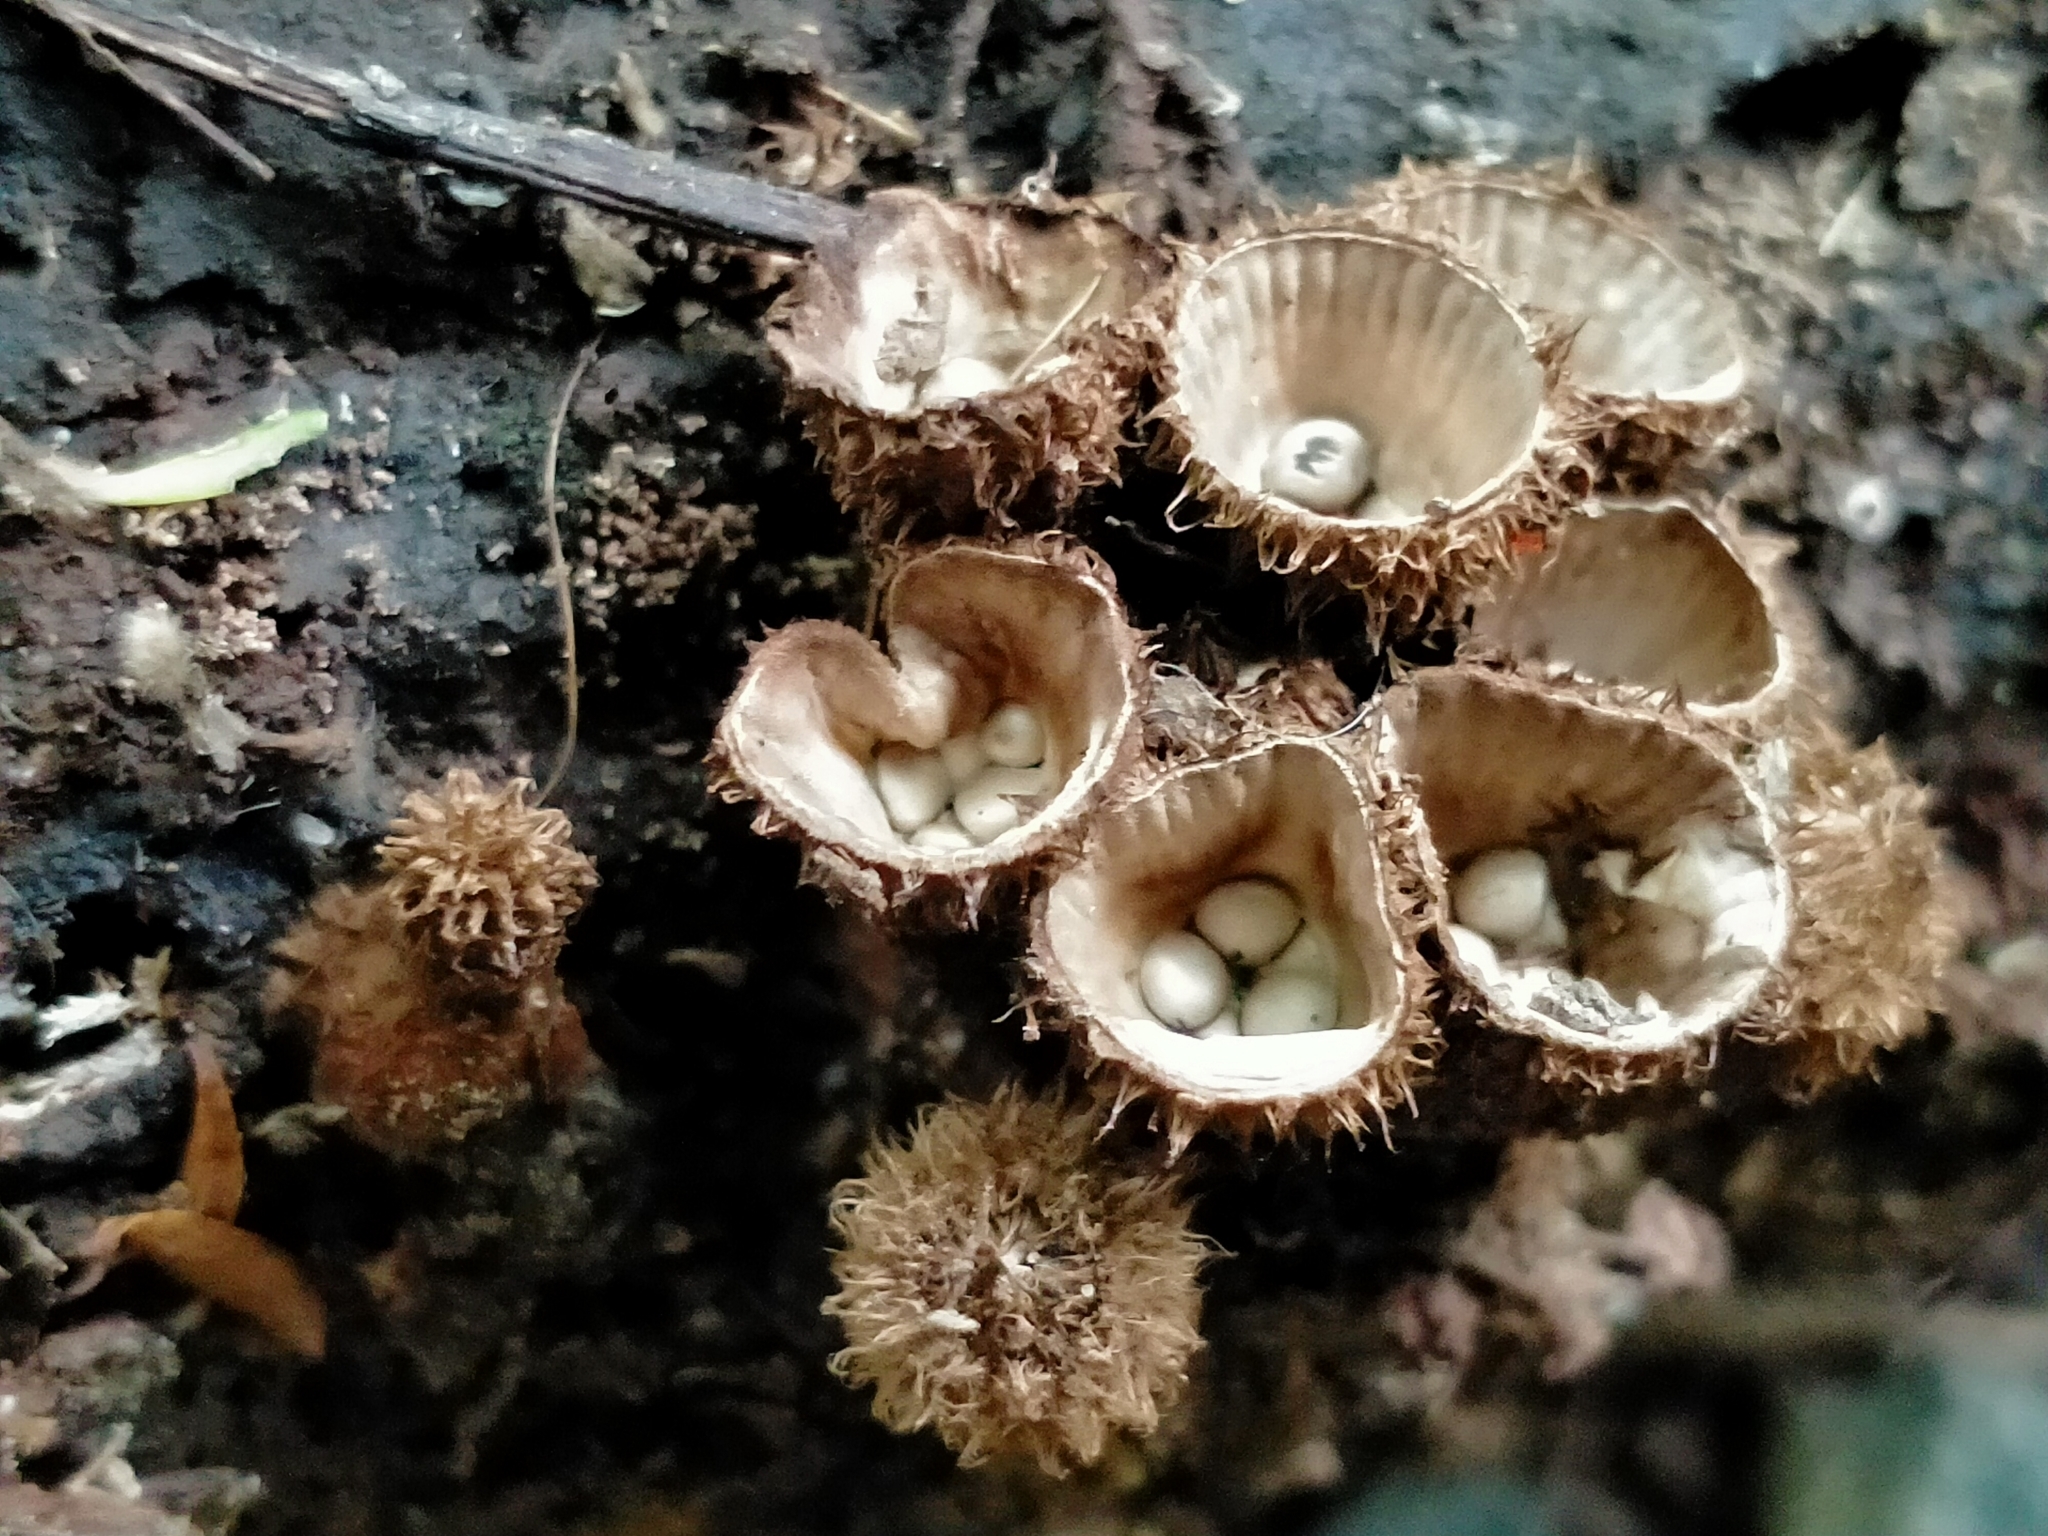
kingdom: Fungi
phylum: Basidiomycota
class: Agaricomycetes
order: Agaricales
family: Agaricaceae
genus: Cyathus
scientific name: Cyathus striatus
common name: Fluted bird's nest
